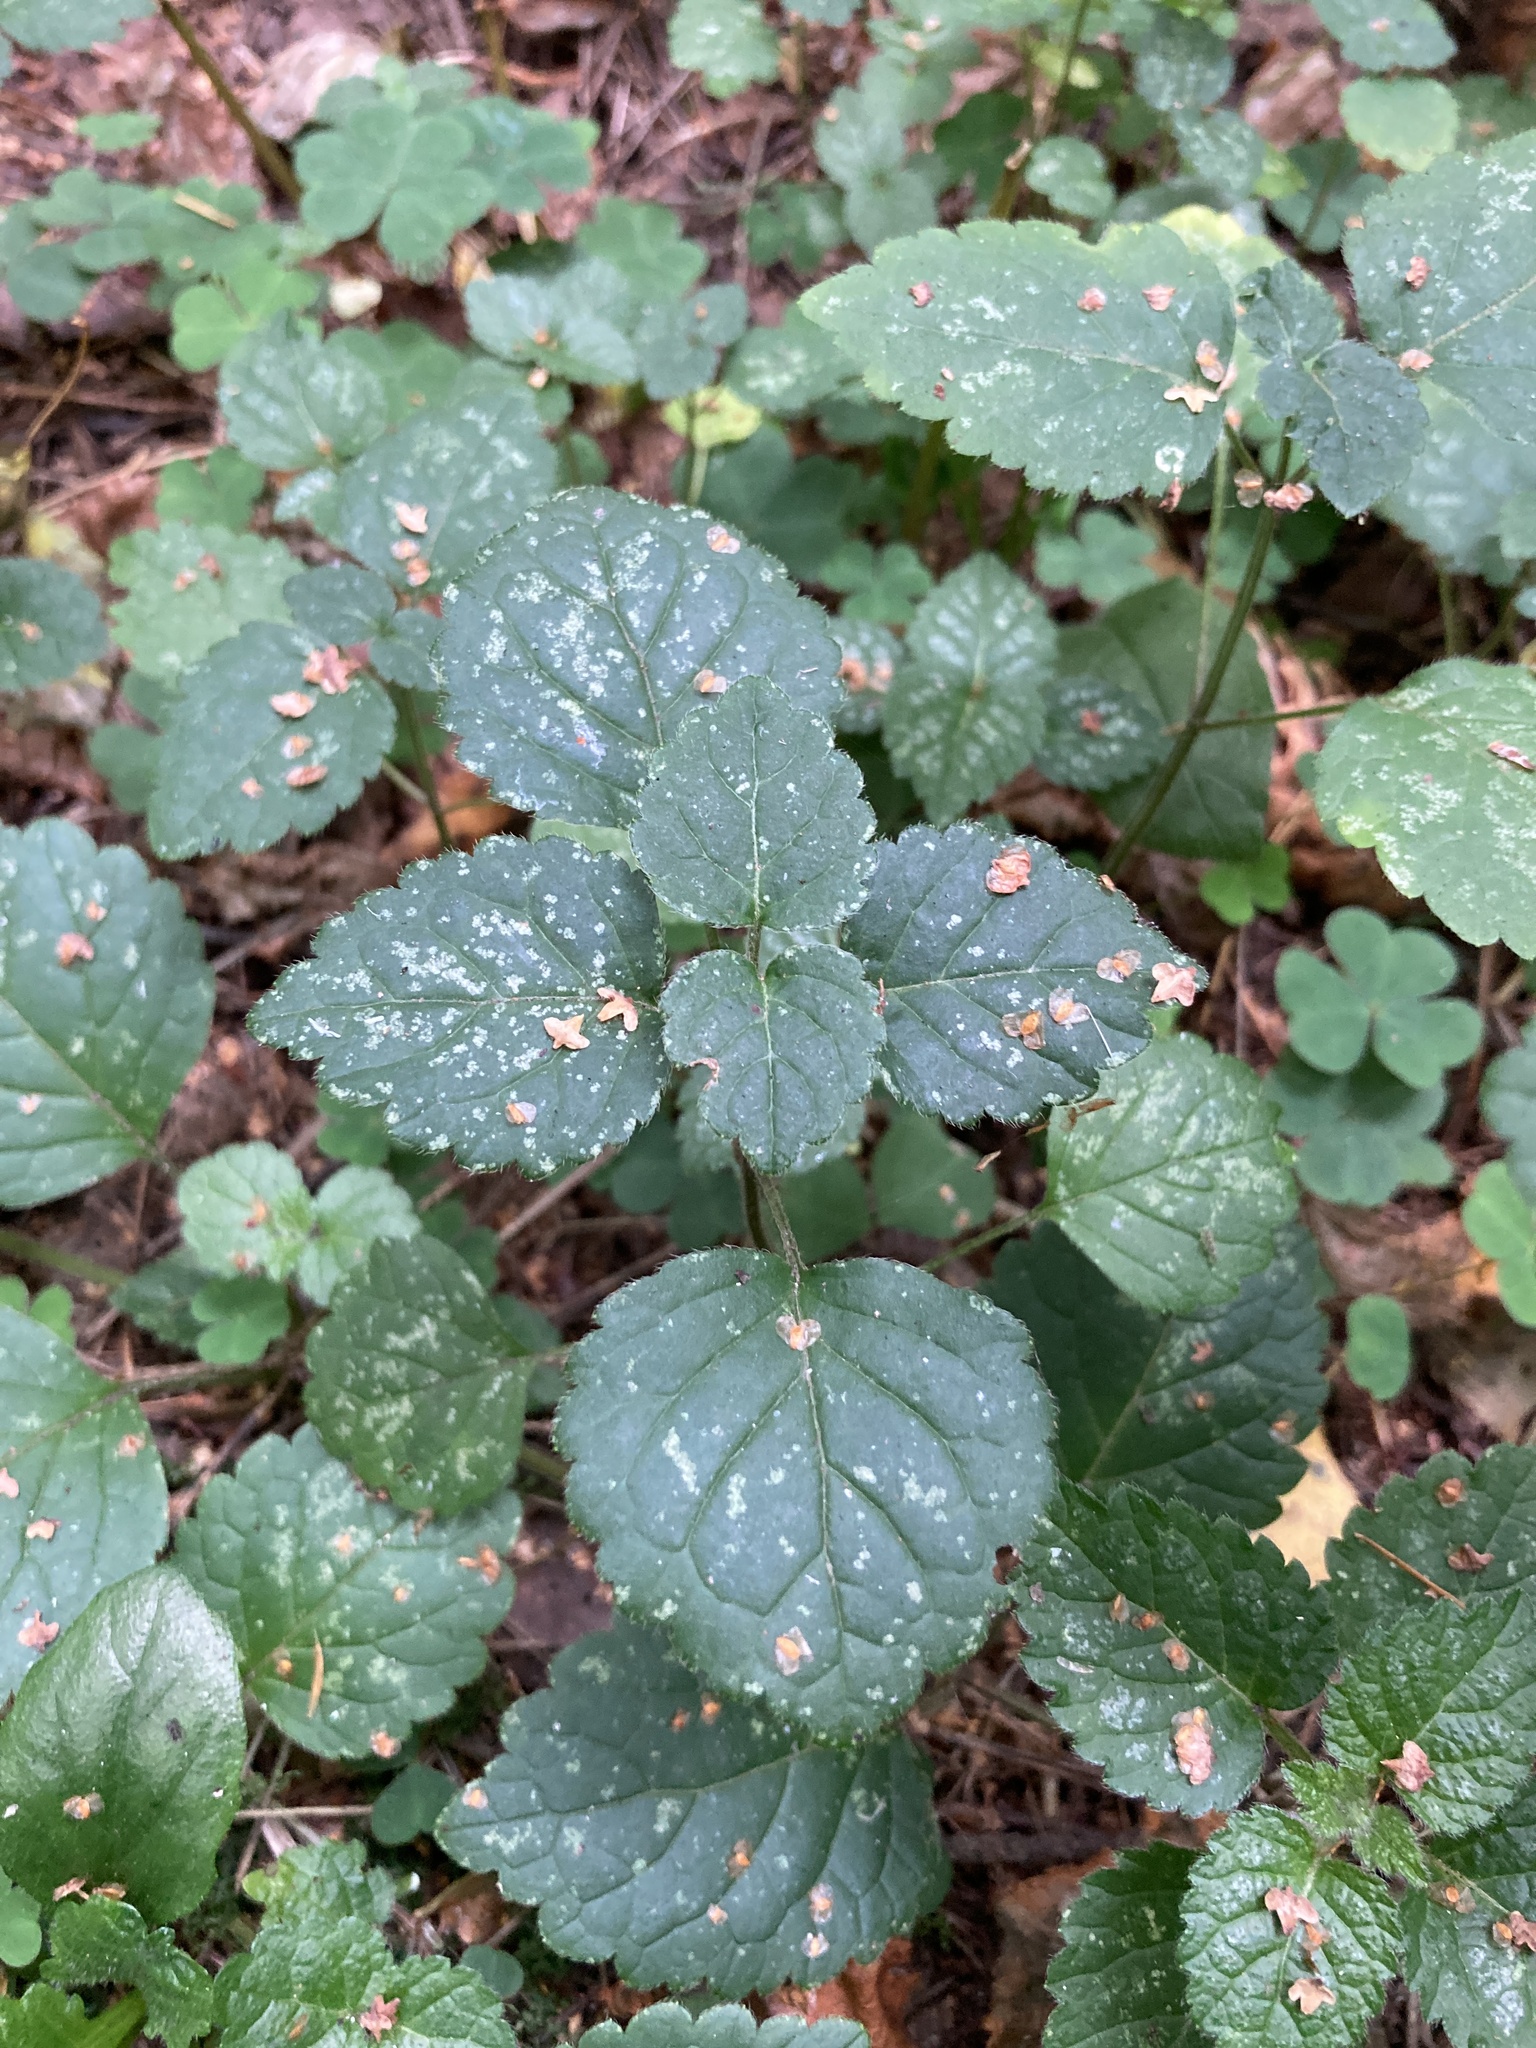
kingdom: Plantae
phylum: Tracheophyta
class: Magnoliopsida
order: Lamiales
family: Lamiaceae
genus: Lamium
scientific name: Lamium galeobdolon
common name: Yellow archangel
